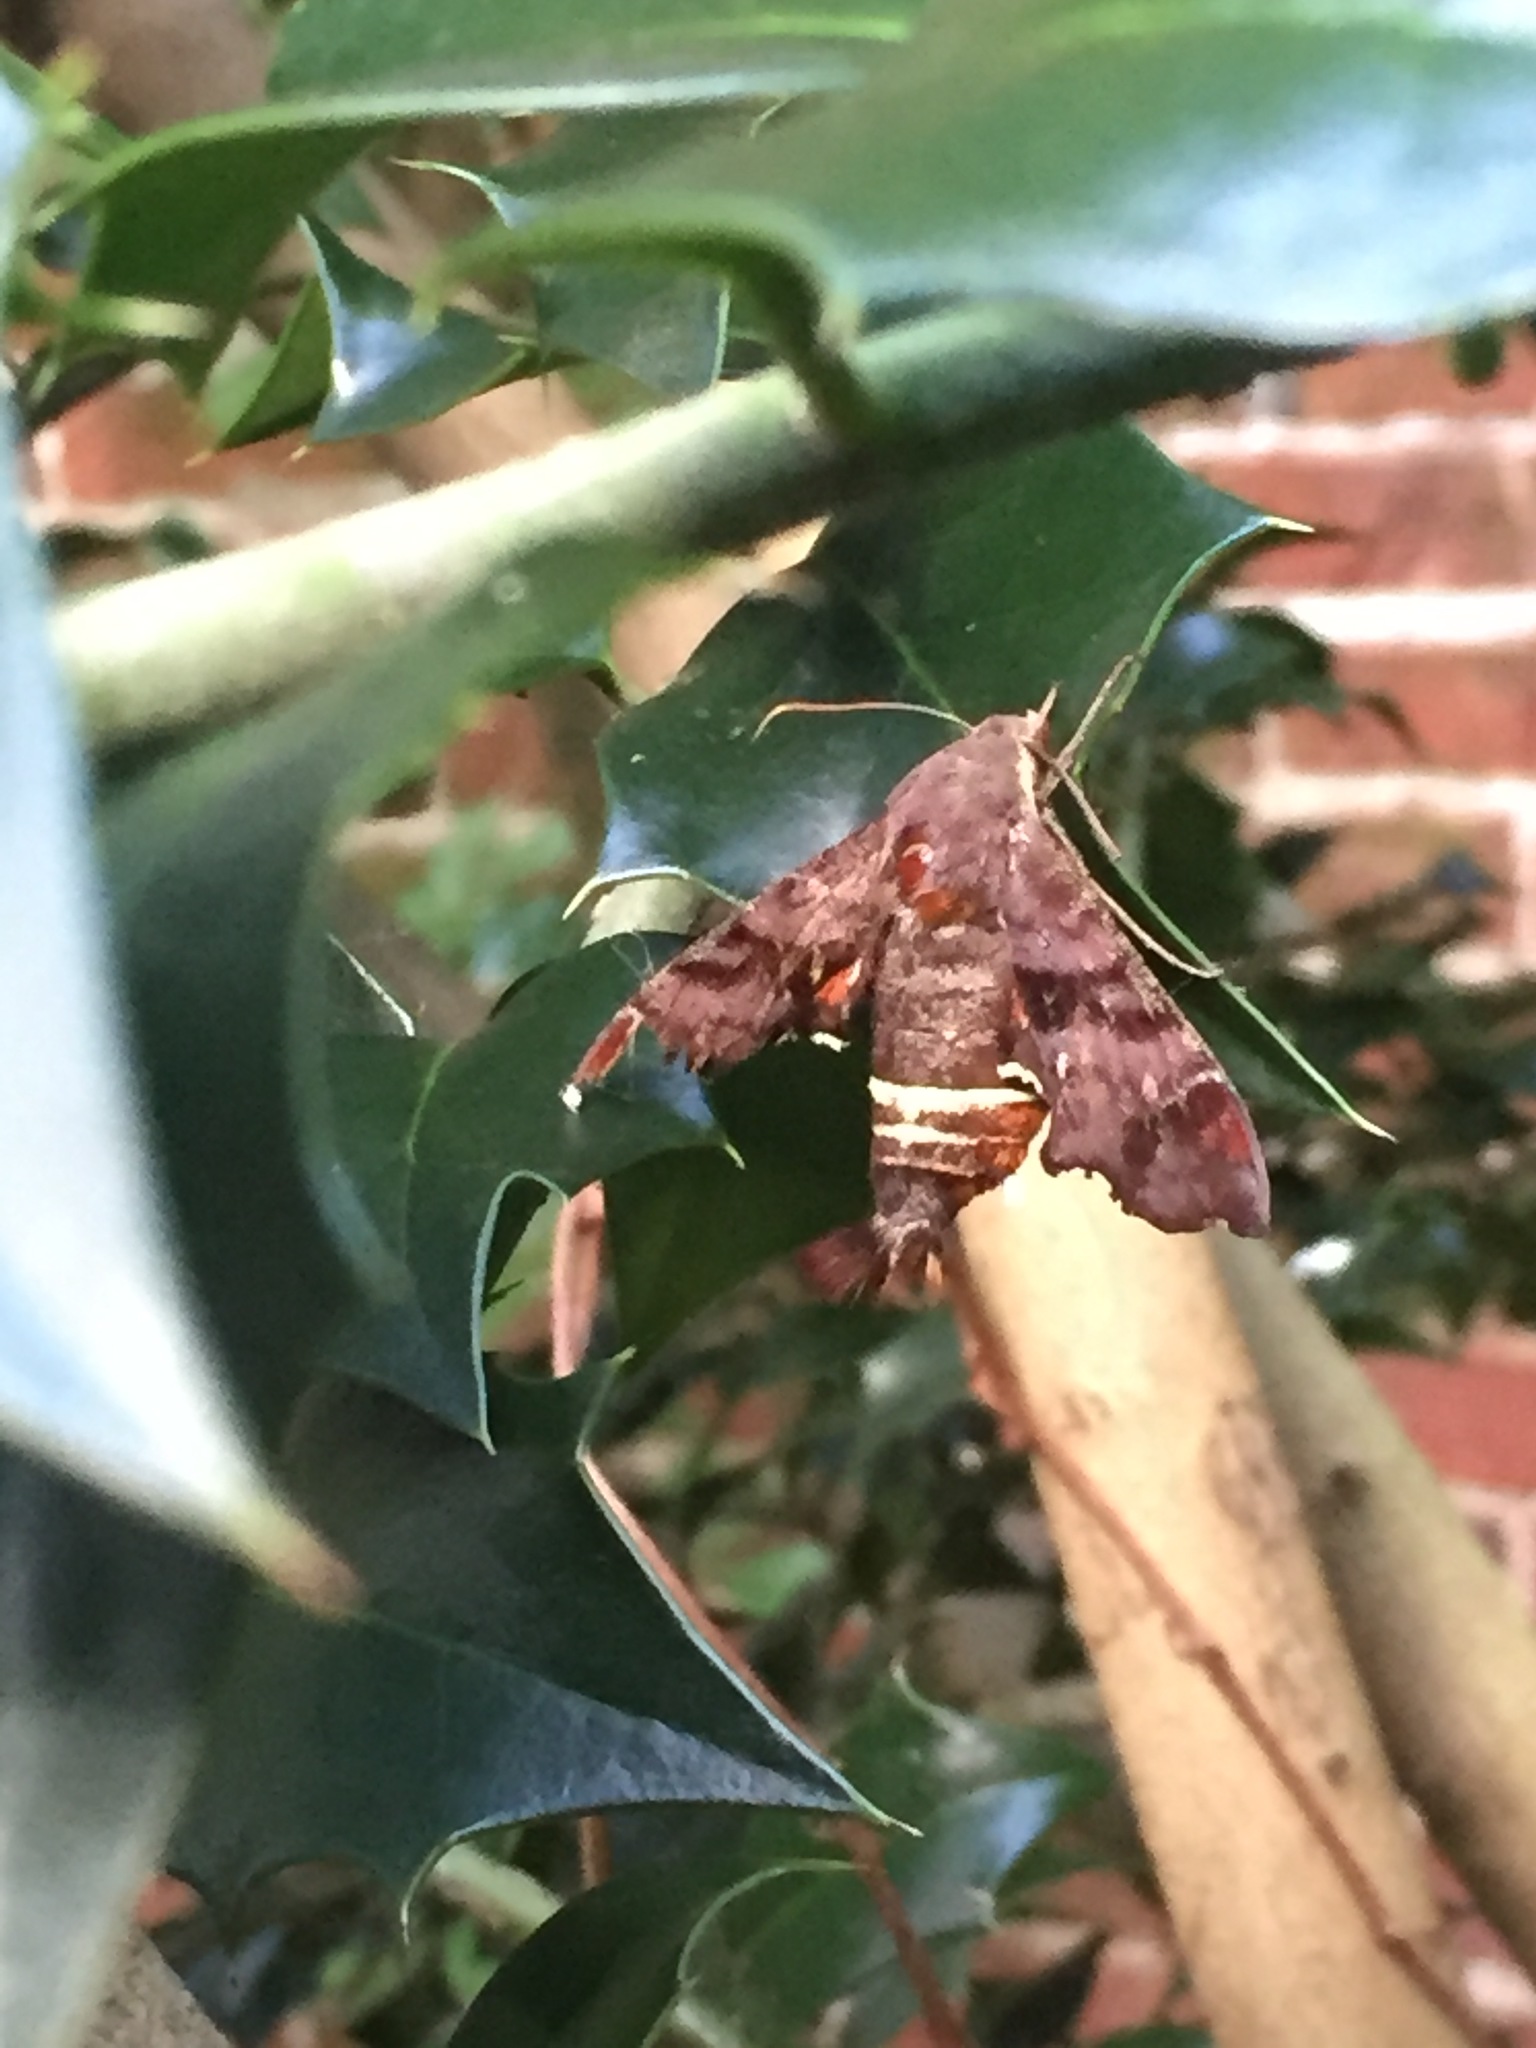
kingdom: Animalia
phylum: Arthropoda
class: Insecta
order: Lepidoptera
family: Sphingidae
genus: Amphion
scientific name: Amphion floridensis
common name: Nessus sphinx
